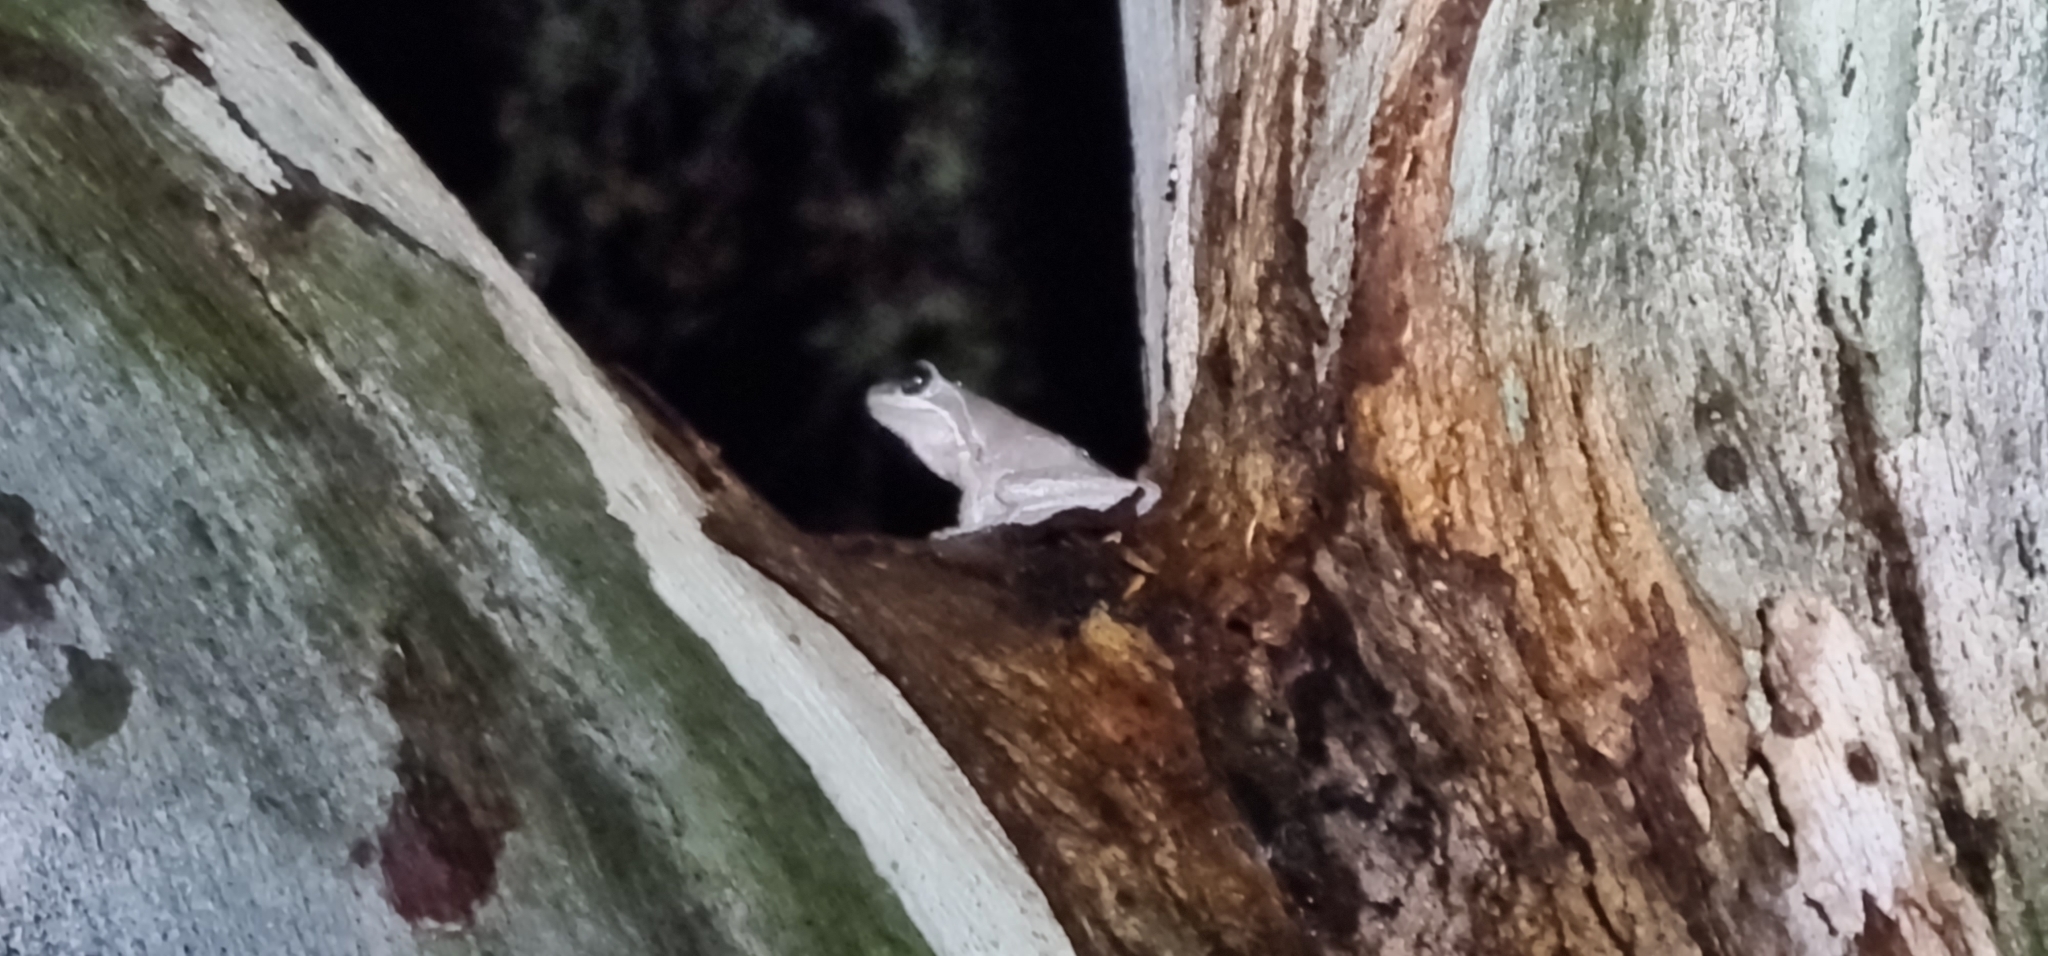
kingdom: Animalia
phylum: Chordata
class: Amphibia
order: Anura
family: Pelodryadidae
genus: Litoria
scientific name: Litoria
